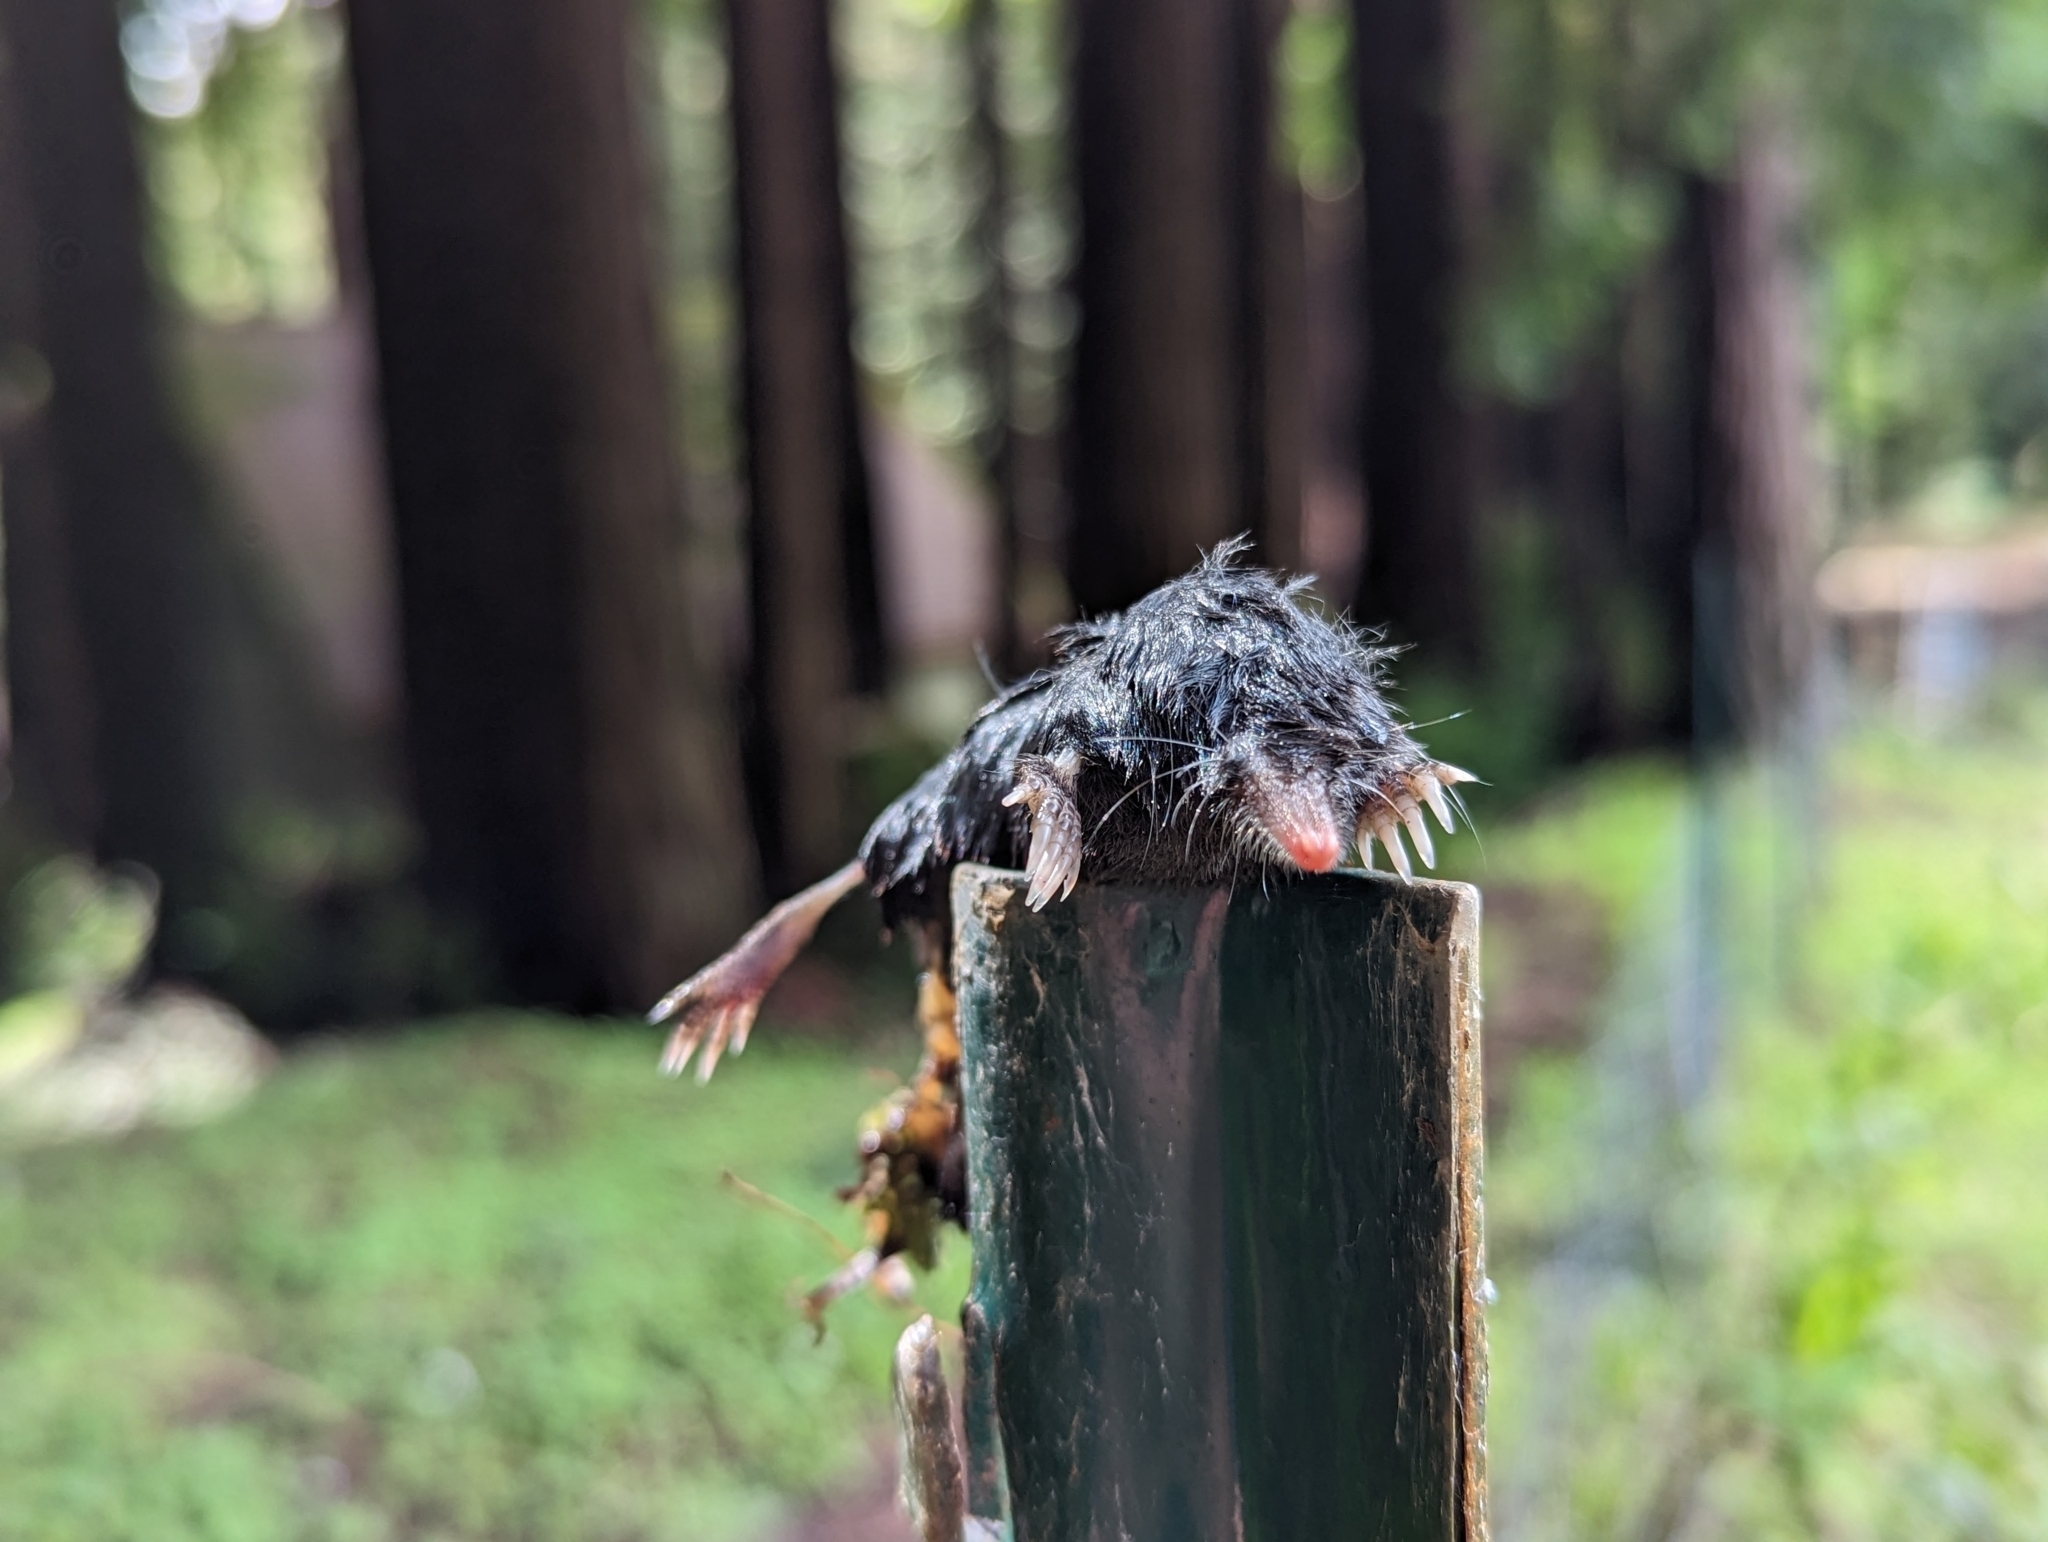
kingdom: Animalia
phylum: Chordata
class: Mammalia
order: Soricomorpha
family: Talpidae
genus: Neurotrichus
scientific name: Neurotrichus gibbsii
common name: American shrew mole
